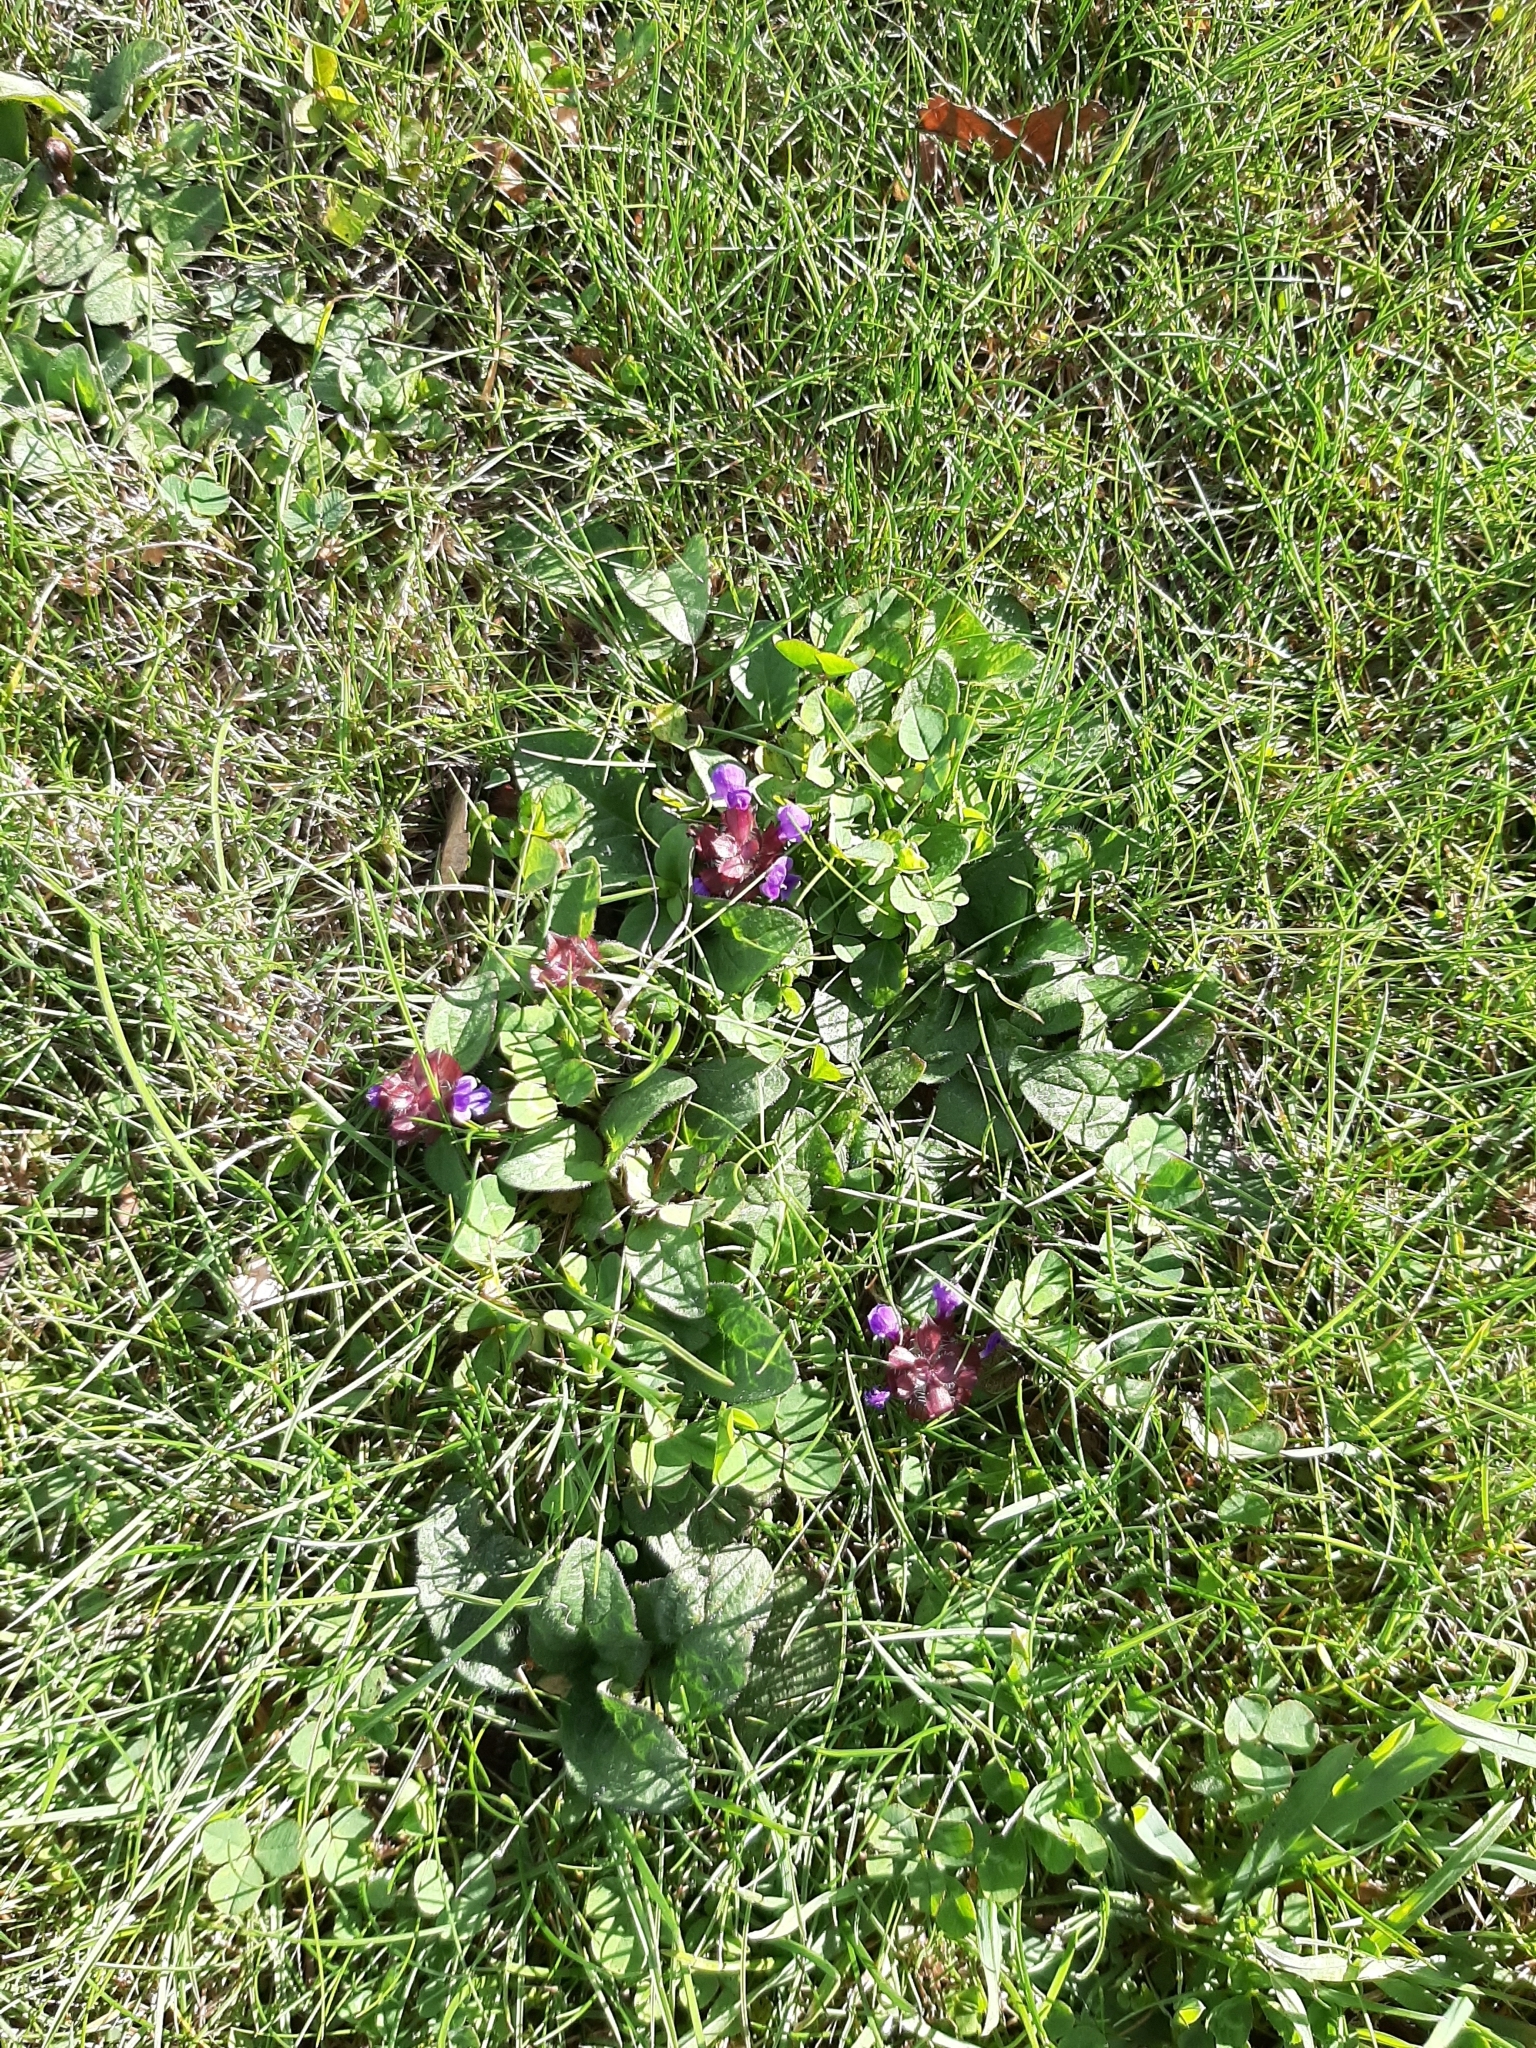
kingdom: Plantae
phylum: Tracheophyta
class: Magnoliopsida
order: Lamiales
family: Lamiaceae
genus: Prunella
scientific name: Prunella vulgaris
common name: Heal-all
